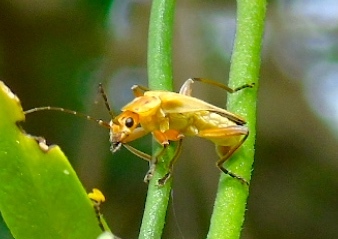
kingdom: Animalia
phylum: Arthropoda
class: Insecta
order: Coleoptera
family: Cantharidae
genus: Chauliognathus
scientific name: Chauliognathus
